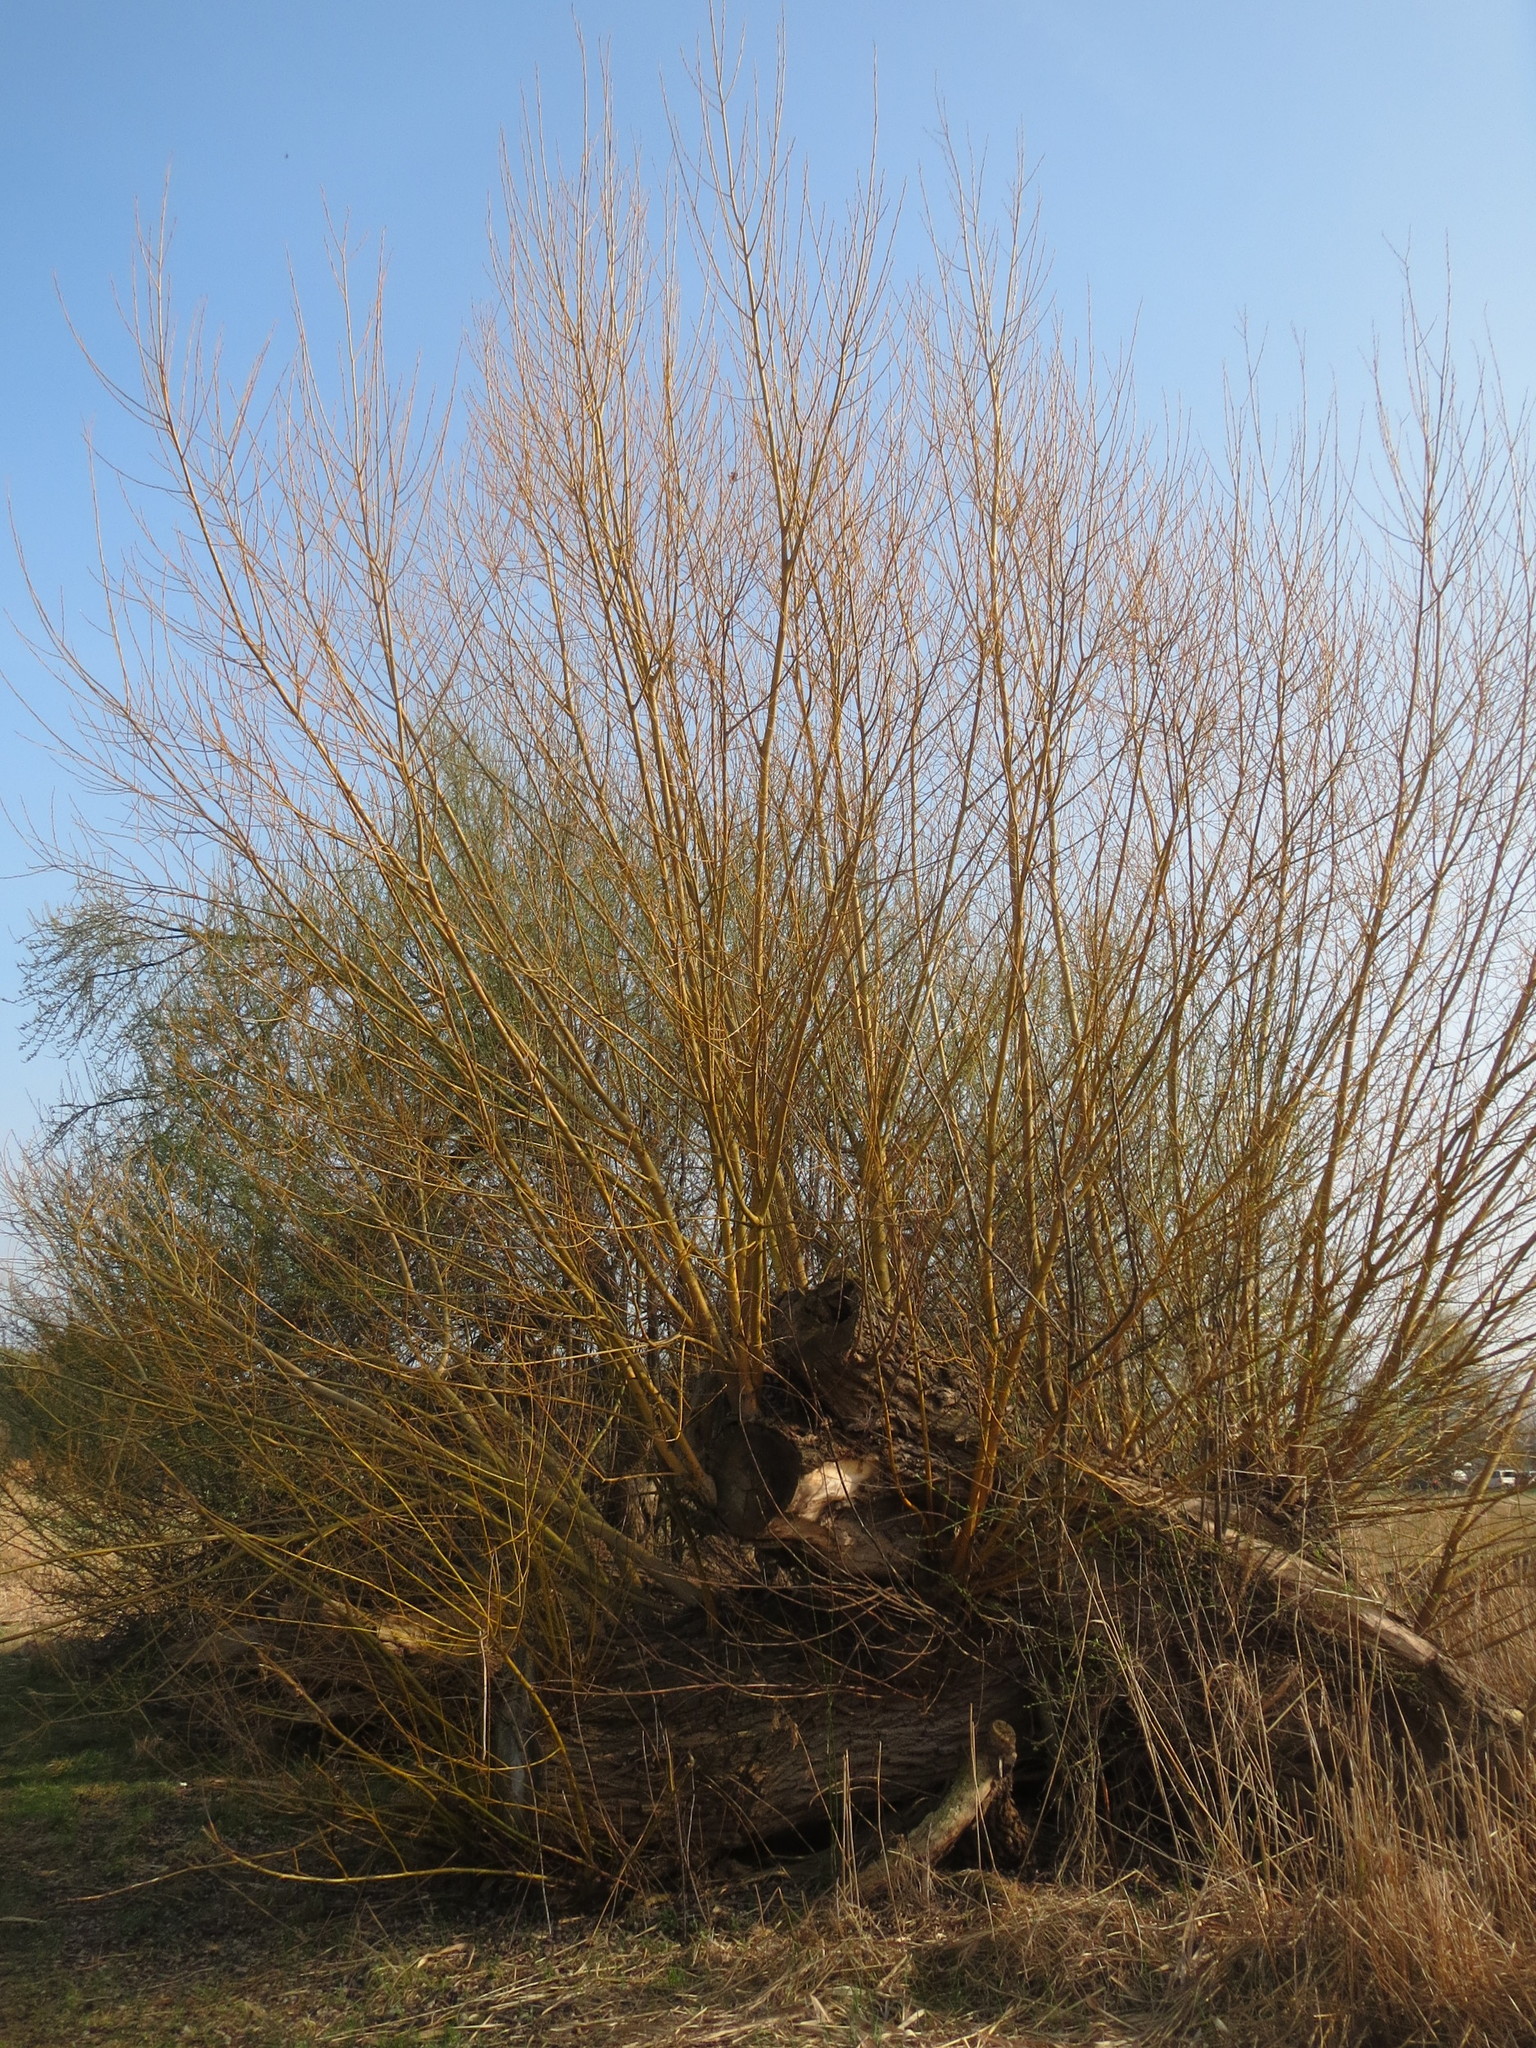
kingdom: Plantae
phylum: Tracheophyta
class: Magnoliopsida
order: Malpighiales
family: Salicaceae
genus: Salix
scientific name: Salix alba
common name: White willow
